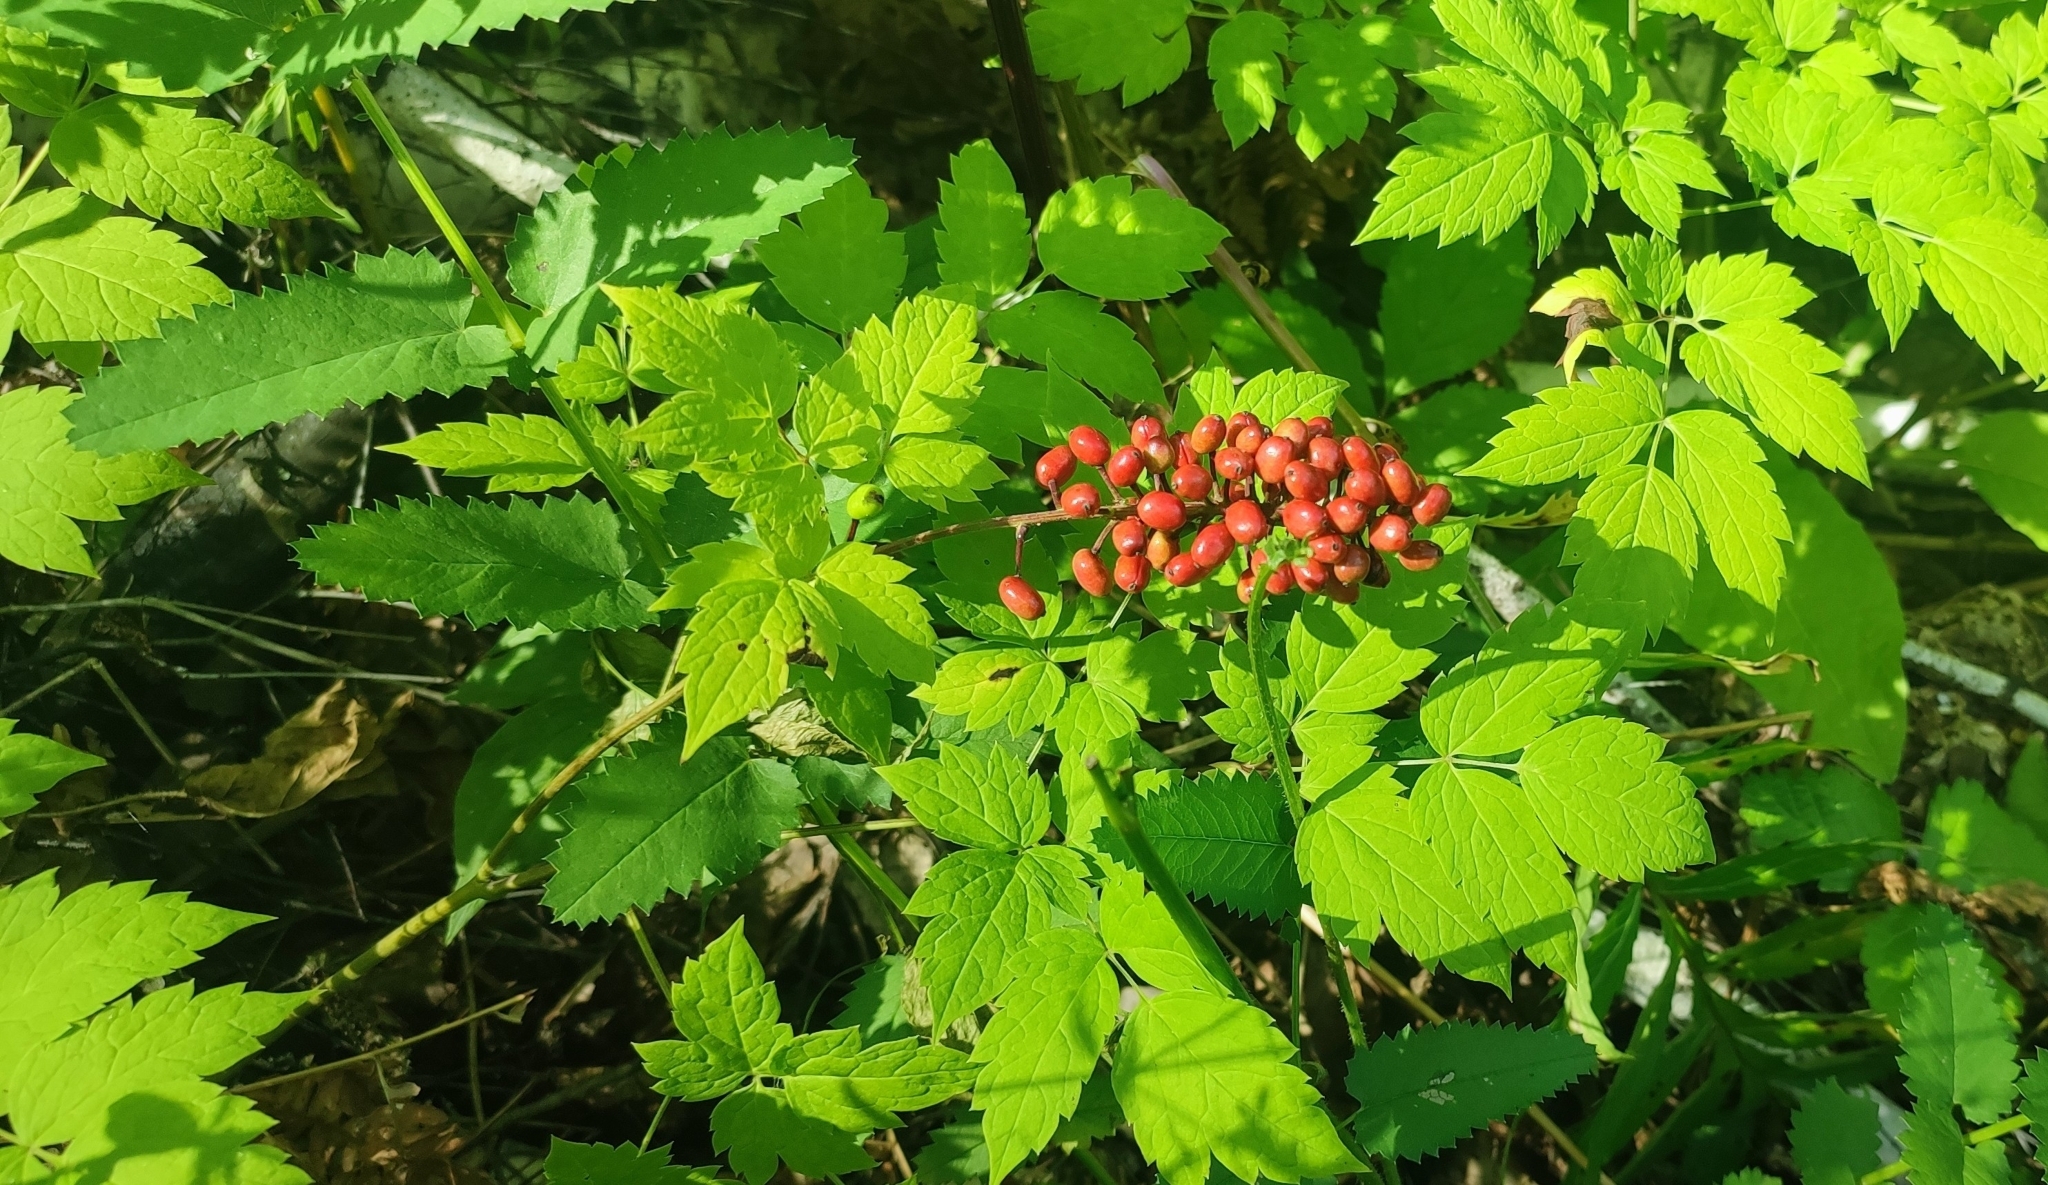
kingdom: Plantae
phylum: Tracheophyta
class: Magnoliopsida
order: Ranunculales
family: Ranunculaceae
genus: Actaea
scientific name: Actaea erythrocarpa
